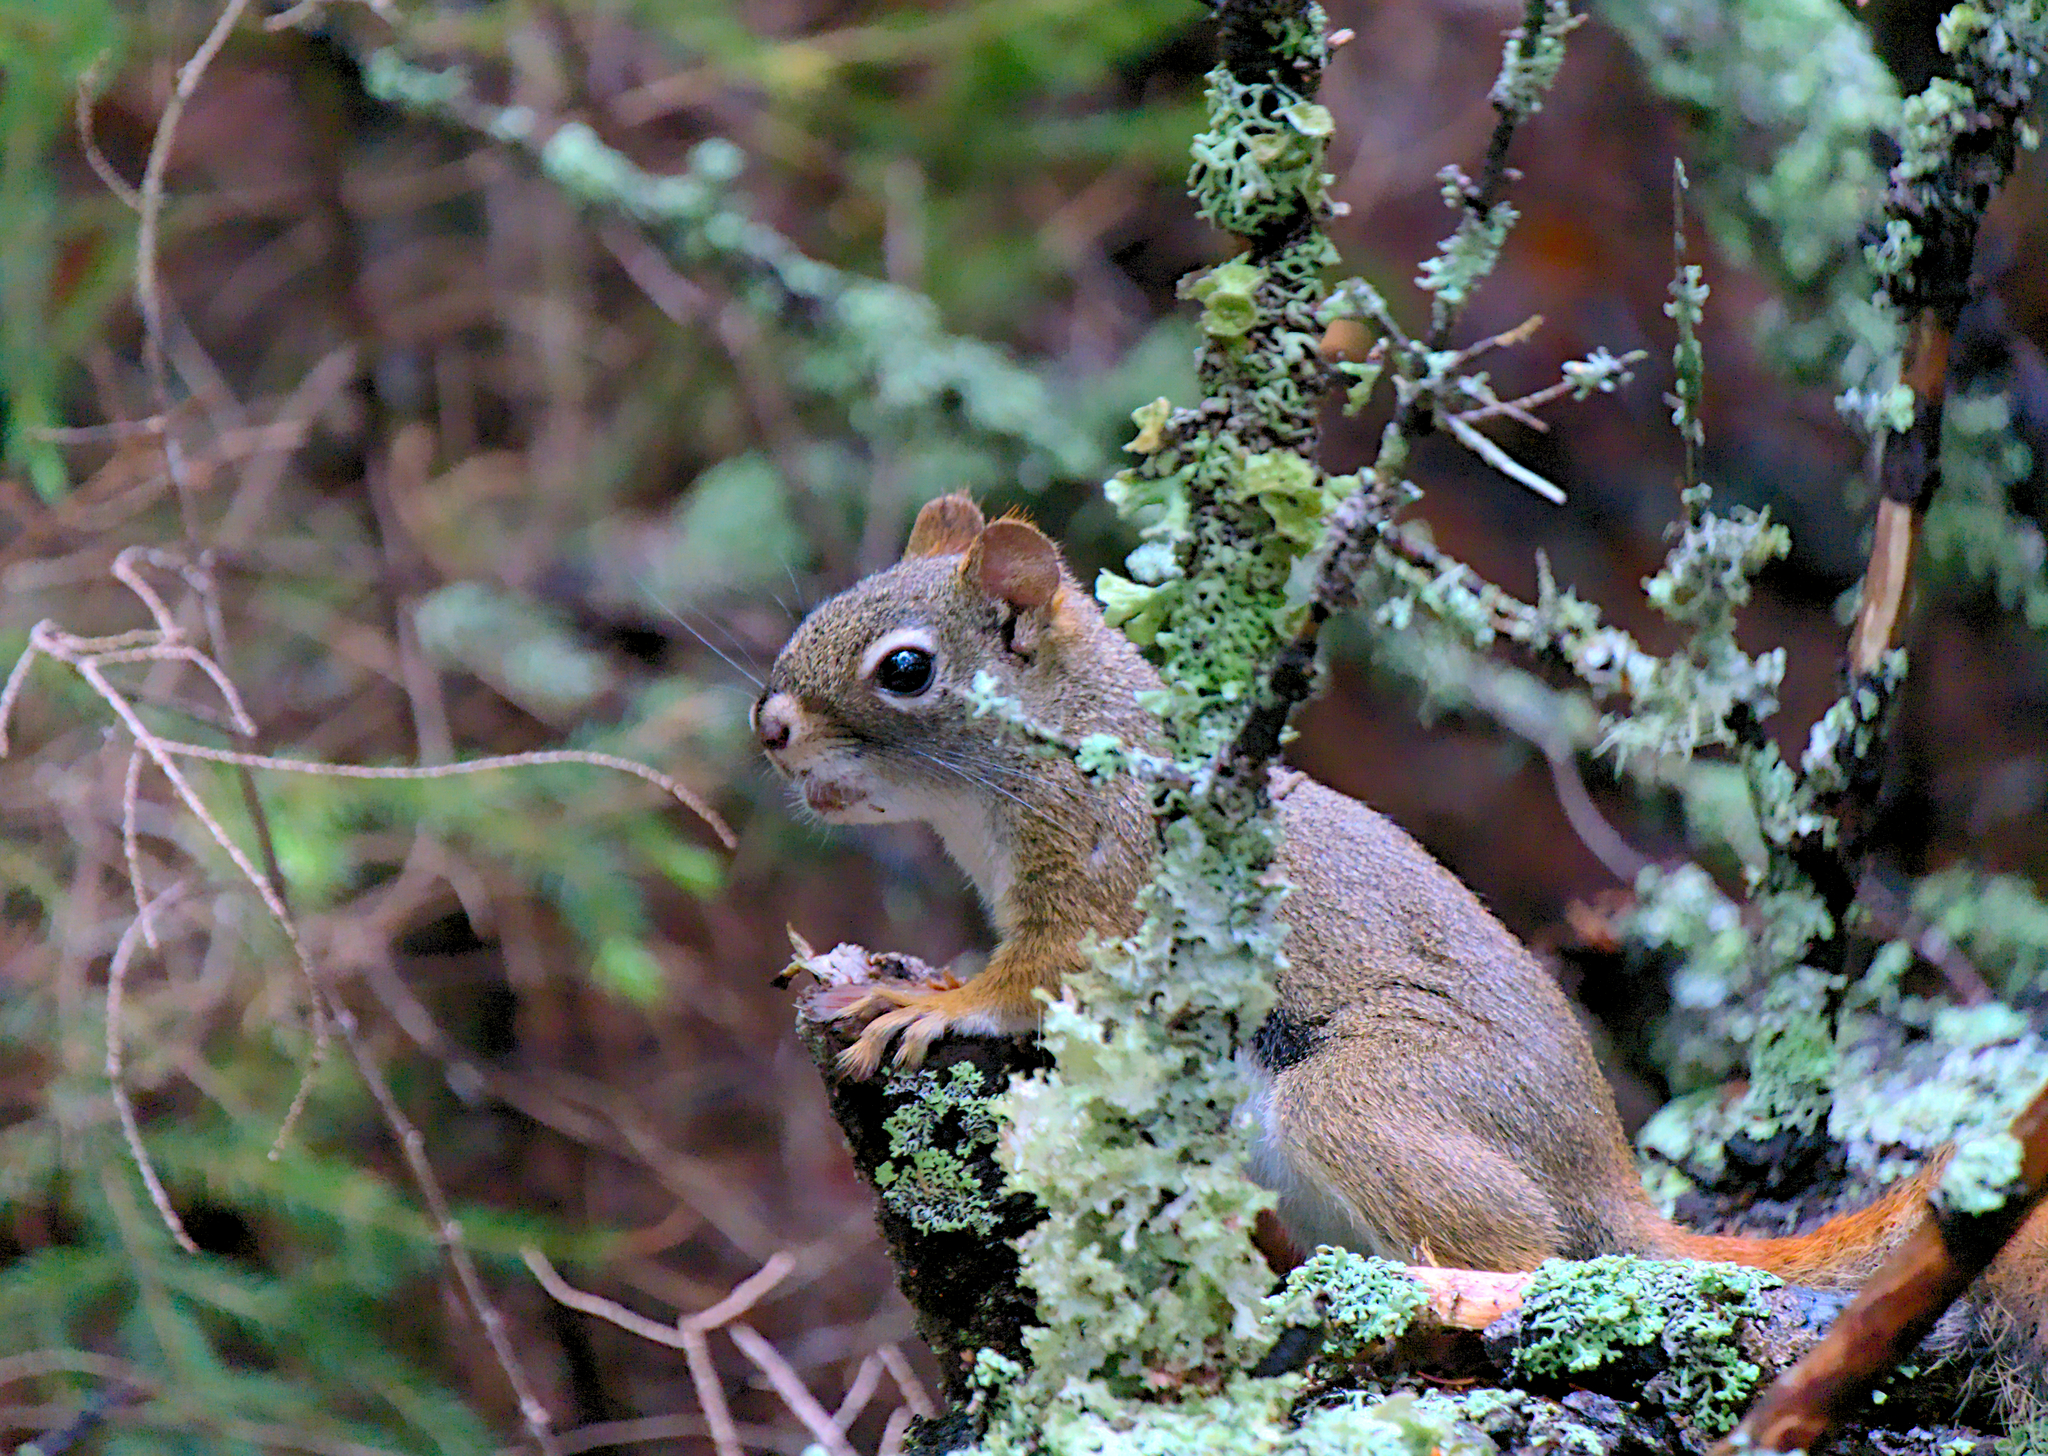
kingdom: Animalia
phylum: Chordata
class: Mammalia
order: Rodentia
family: Sciuridae
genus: Tamiasciurus
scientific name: Tamiasciurus hudsonicus
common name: Red squirrel
